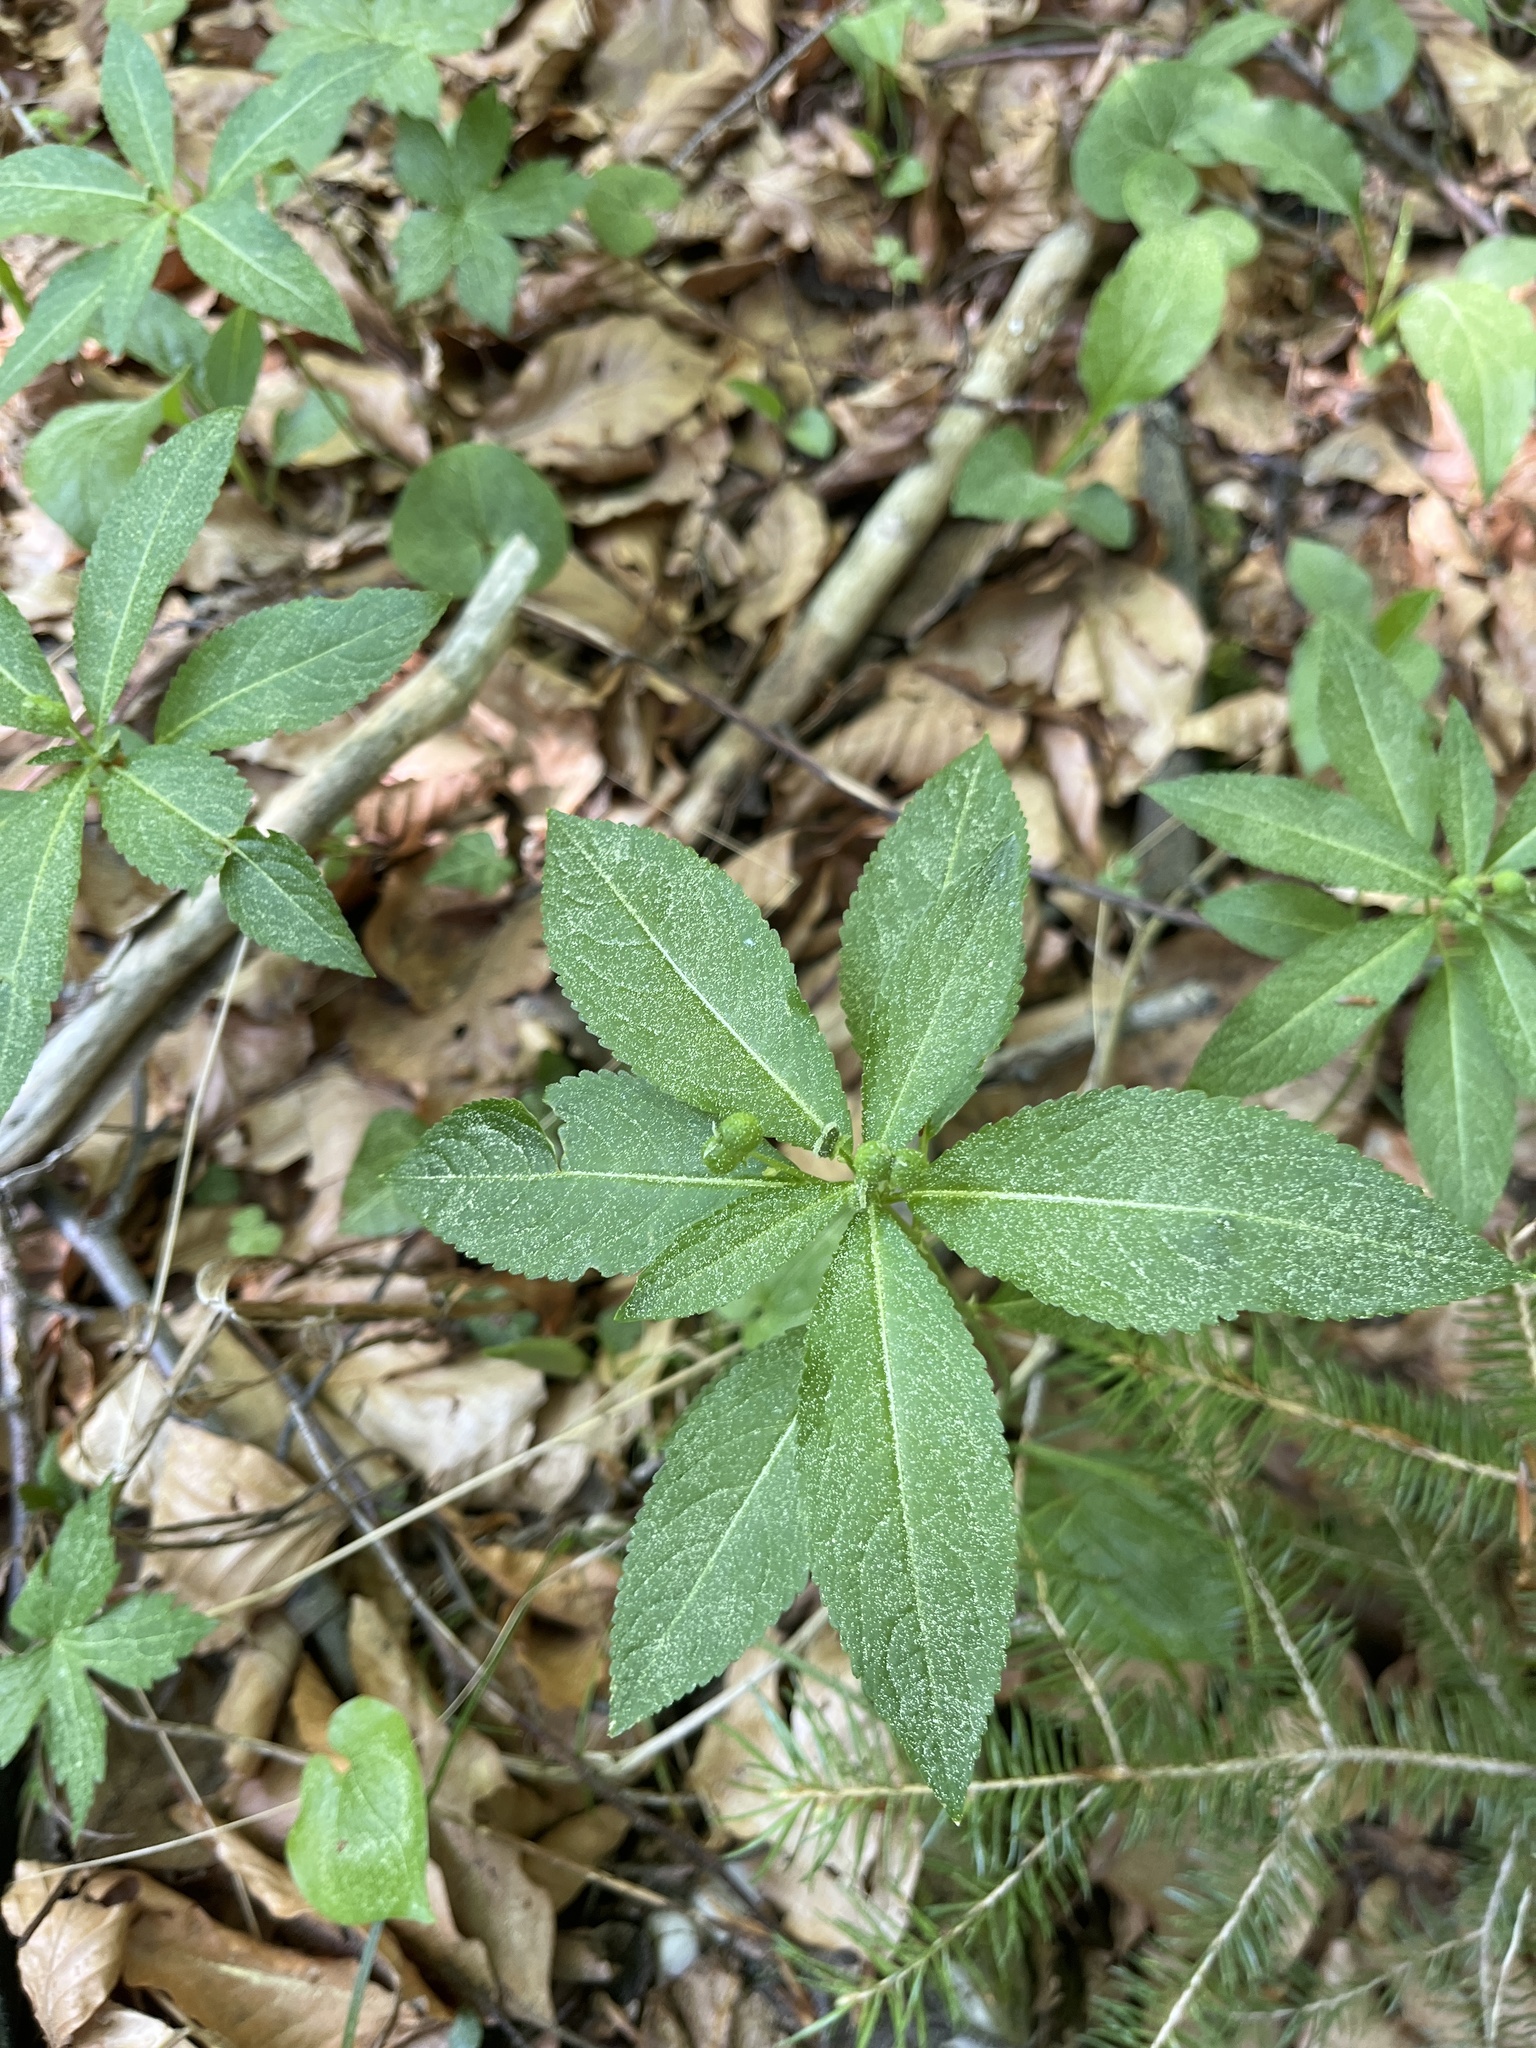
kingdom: Plantae
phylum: Tracheophyta
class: Magnoliopsida
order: Malpighiales
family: Euphorbiaceae
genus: Mercurialis
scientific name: Mercurialis perennis
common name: Dog mercury
